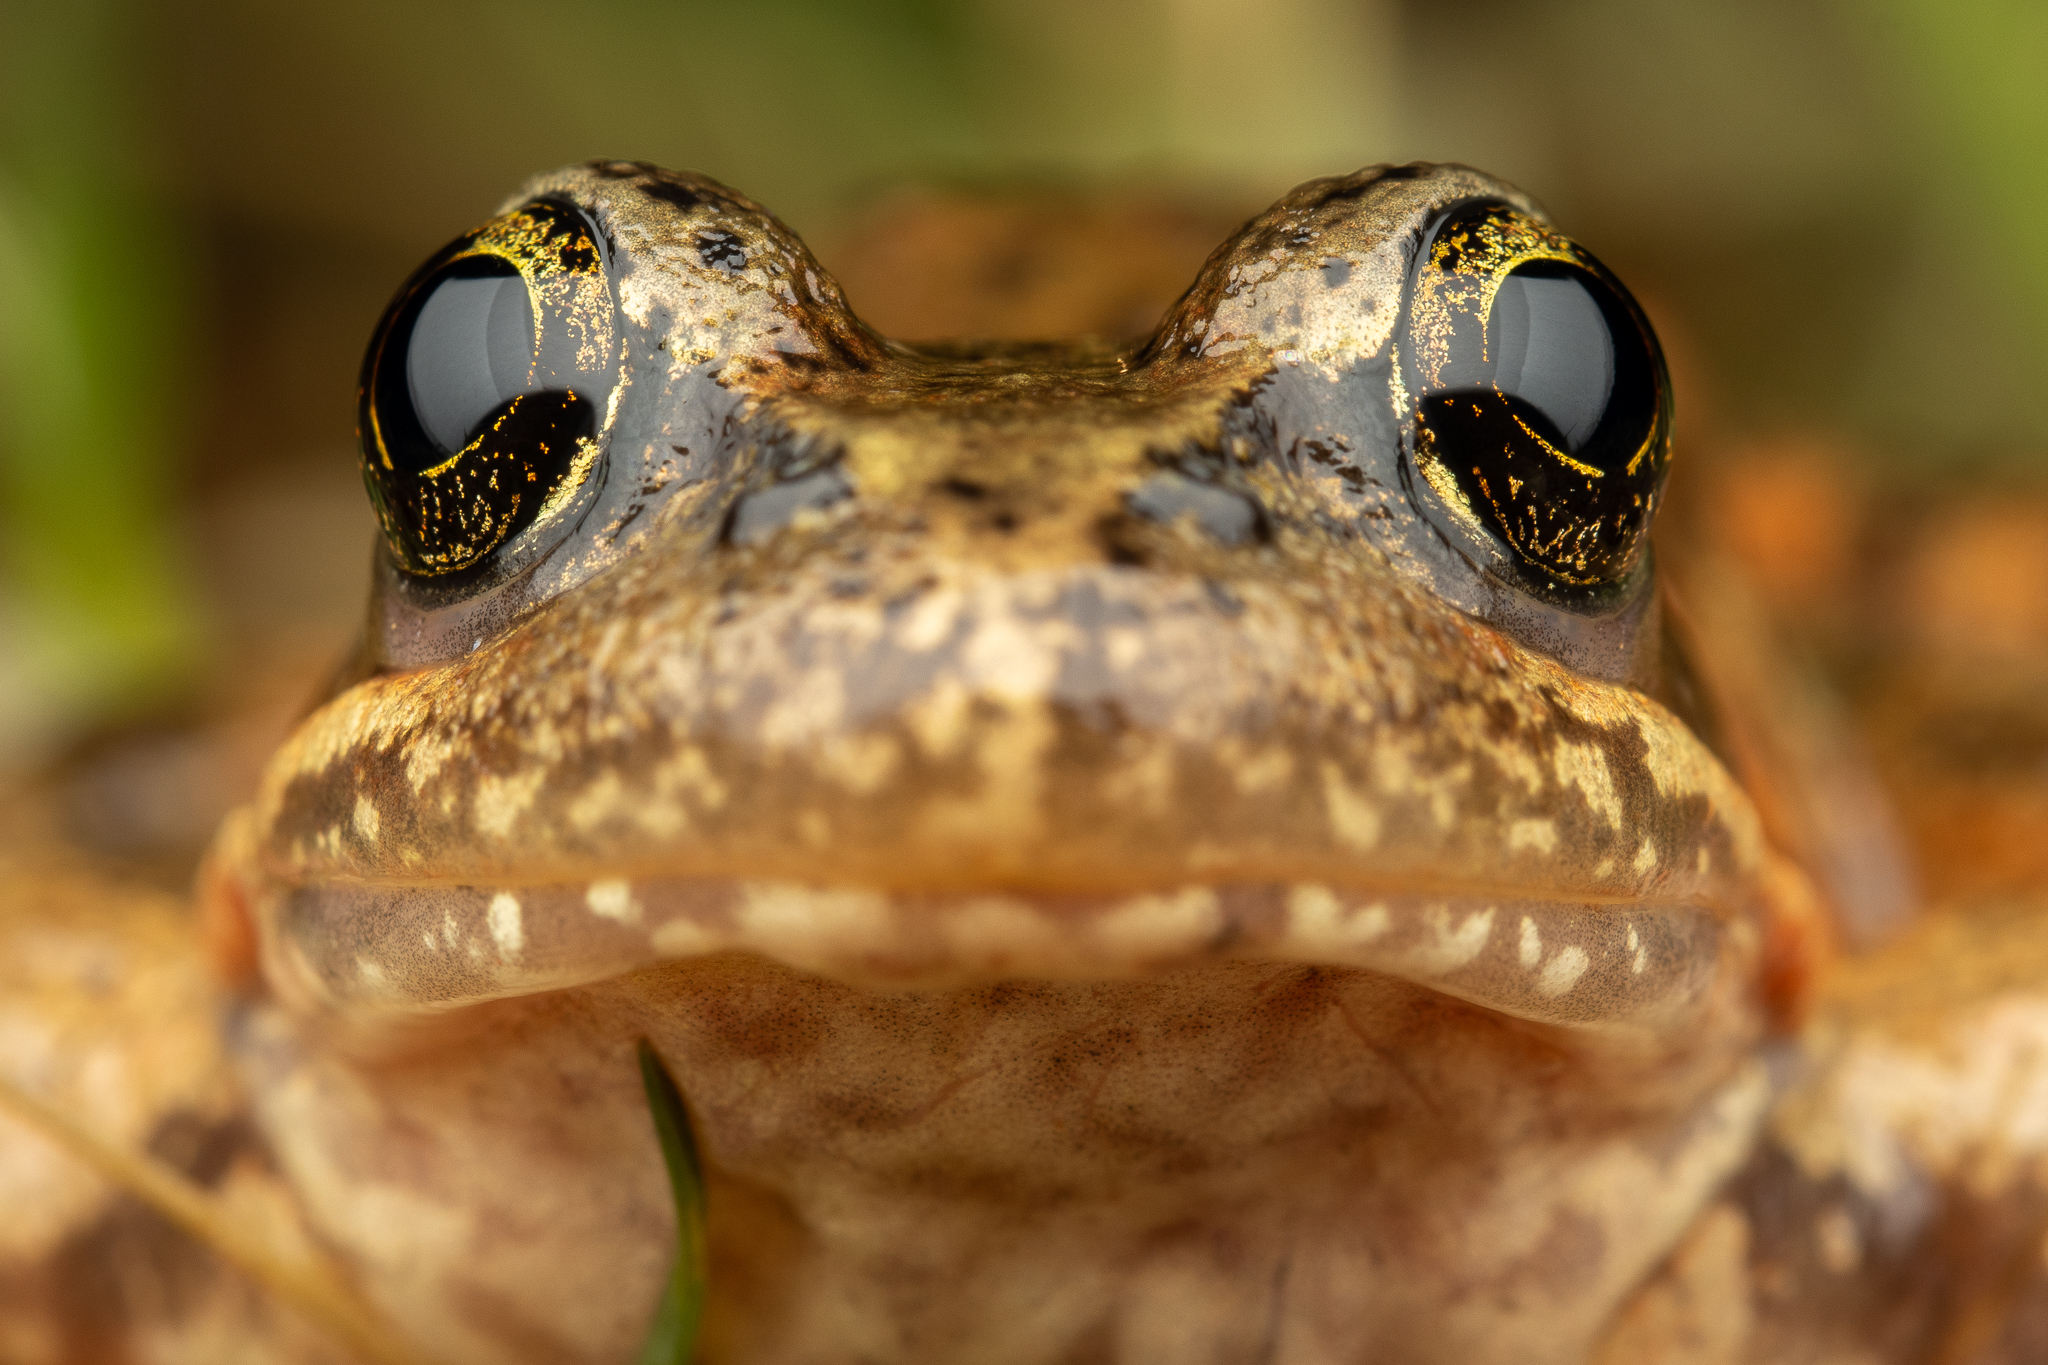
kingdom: Animalia
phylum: Chordata
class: Amphibia
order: Anura
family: Ranidae
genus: Rana
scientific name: Rana aurora
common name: Red-legged frog
